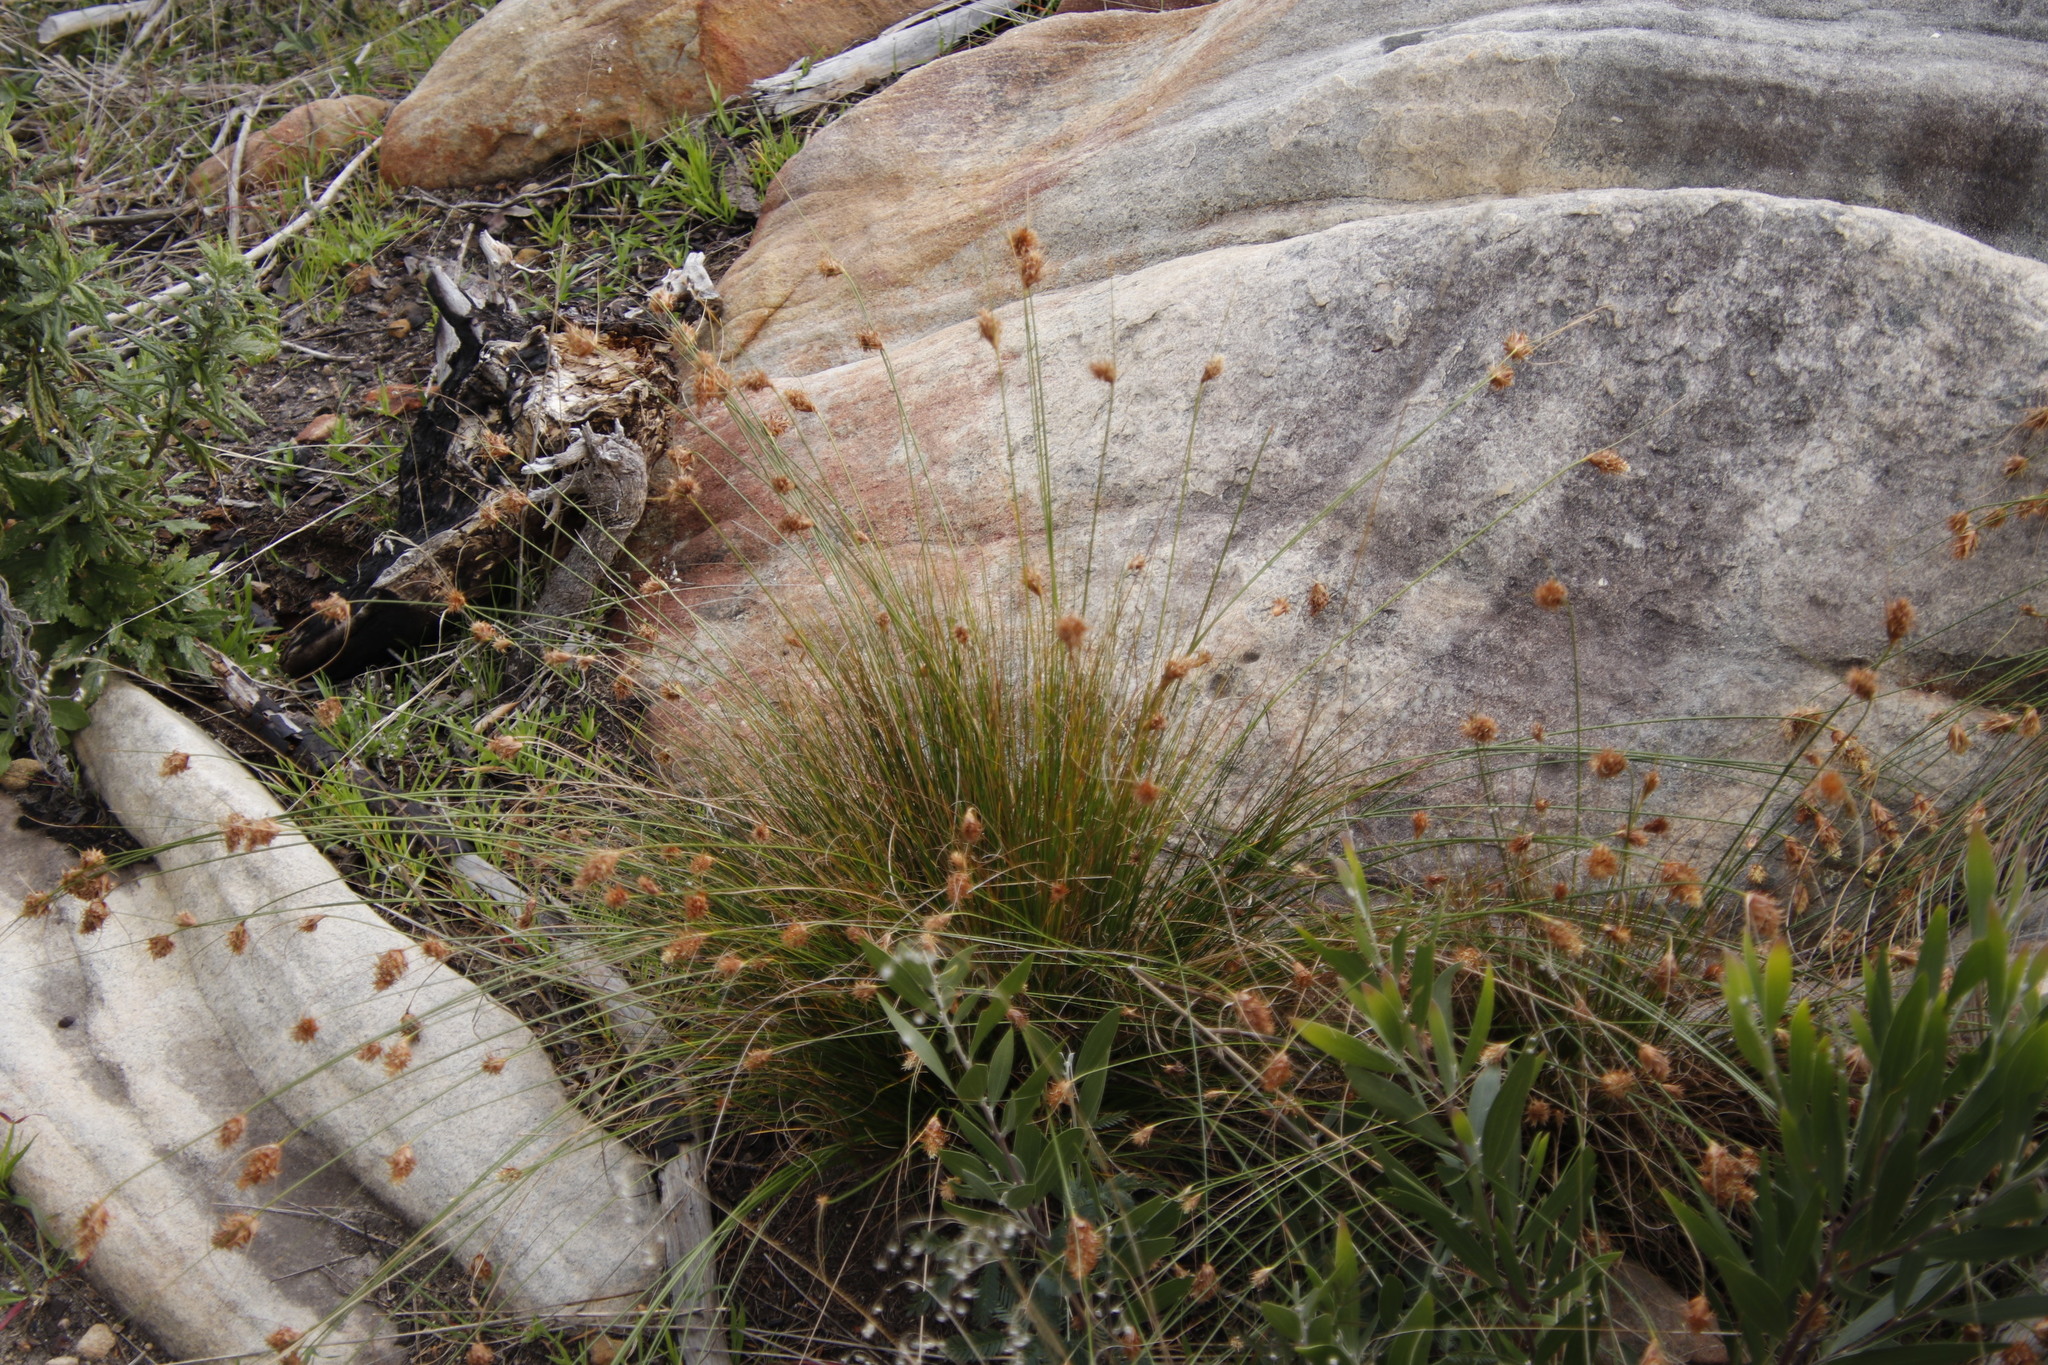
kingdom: Plantae
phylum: Tracheophyta
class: Liliopsida
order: Poales
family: Cyperaceae
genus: Ficinia
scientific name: Ficinia nigrescens
